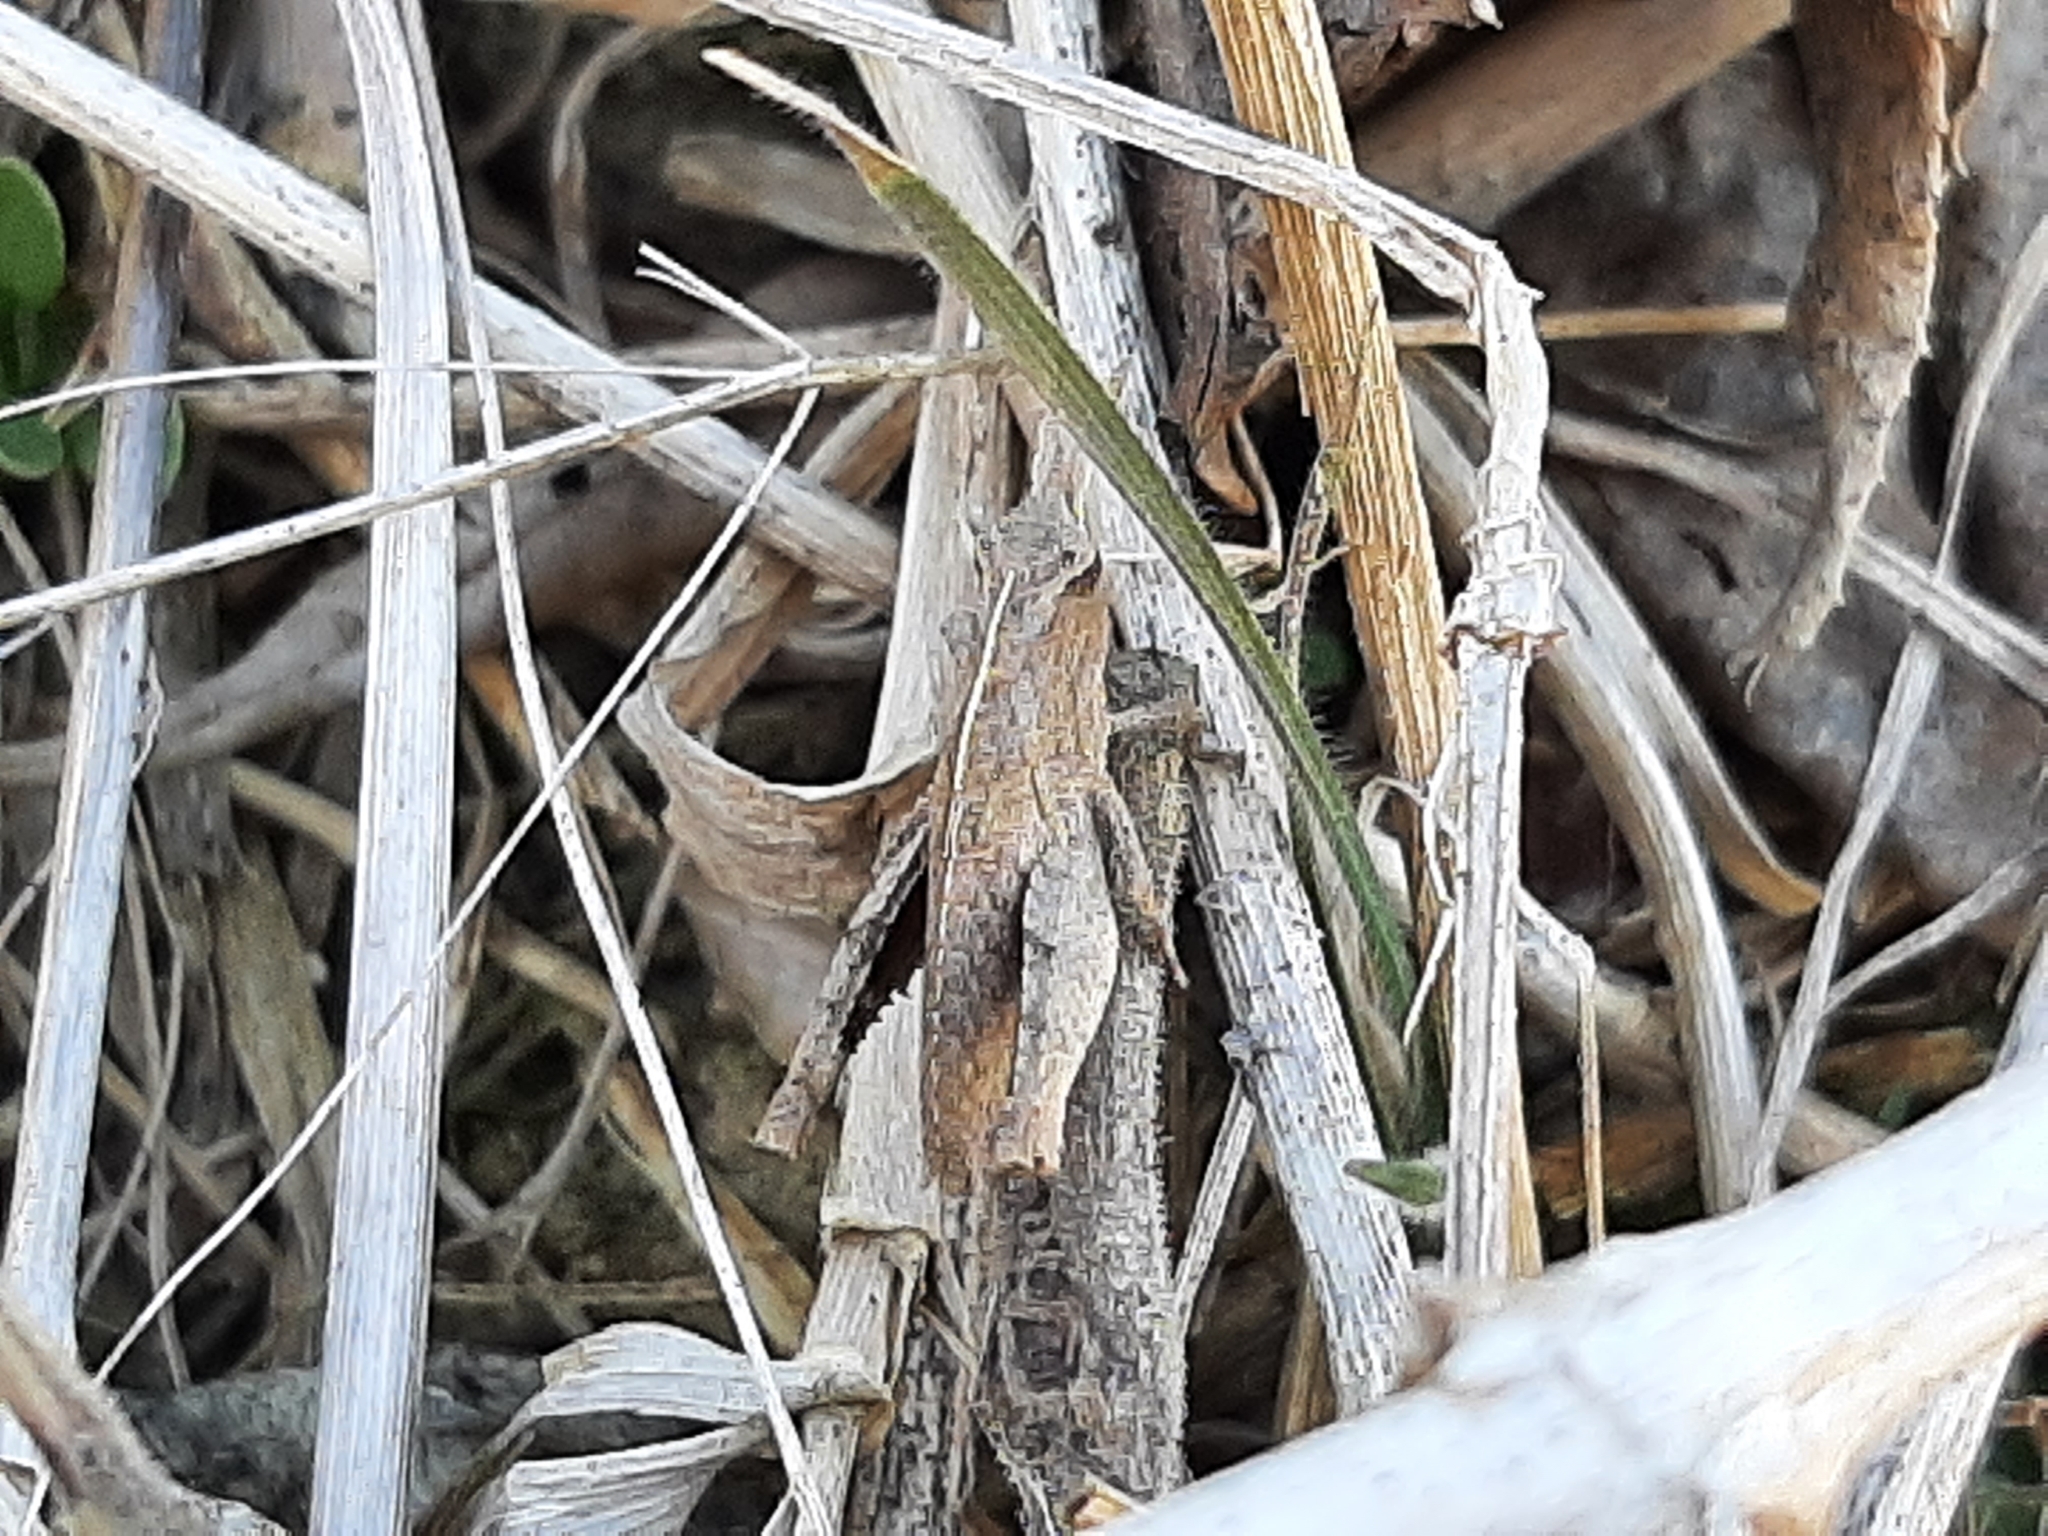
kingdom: Animalia
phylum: Arthropoda
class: Insecta
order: Orthoptera
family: Acrididae
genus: Chortophaga
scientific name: Chortophaga viridifasciata
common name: Green-striped grasshopper
